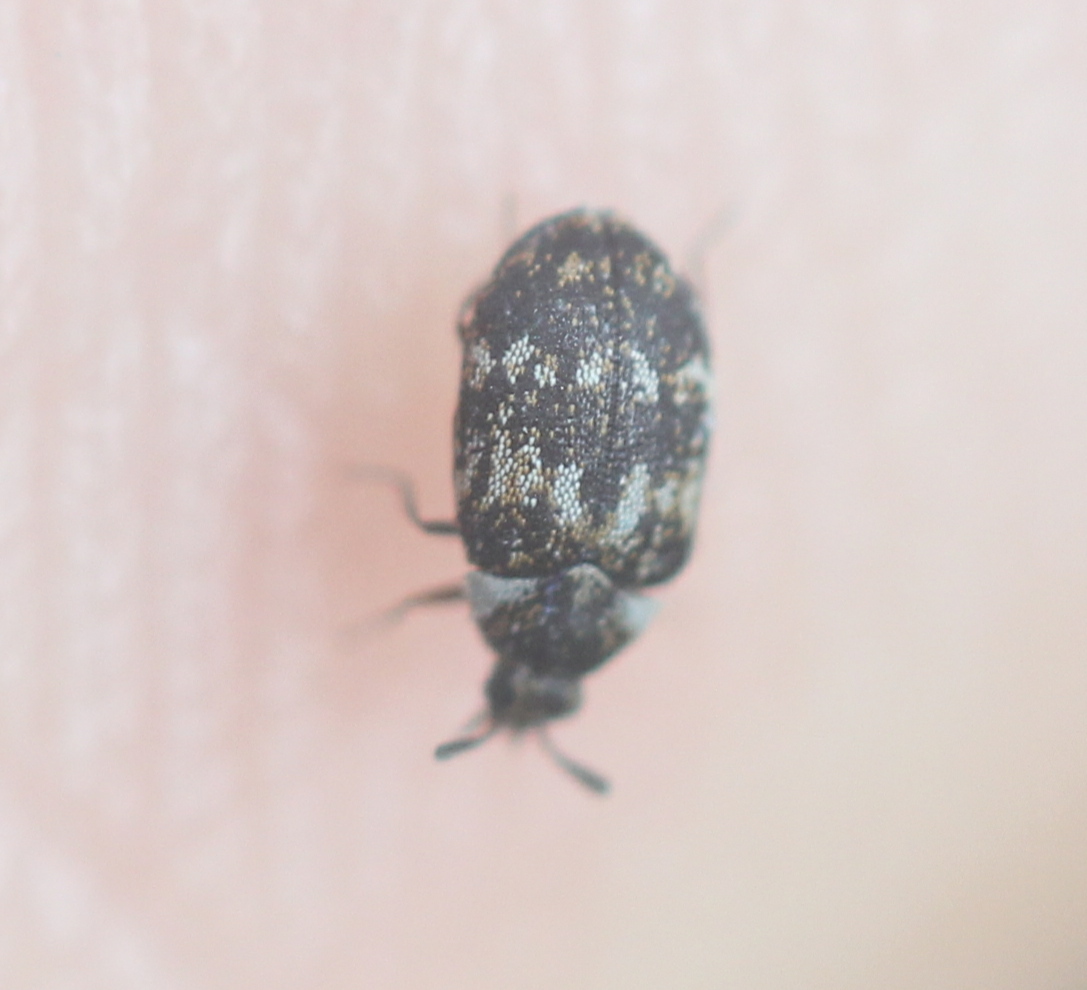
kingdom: Animalia
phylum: Arthropoda
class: Insecta
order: Coleoptera
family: Dermestidae
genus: Anthrenus
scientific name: Anthrenus fuscus
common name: Mill carpet beetle
